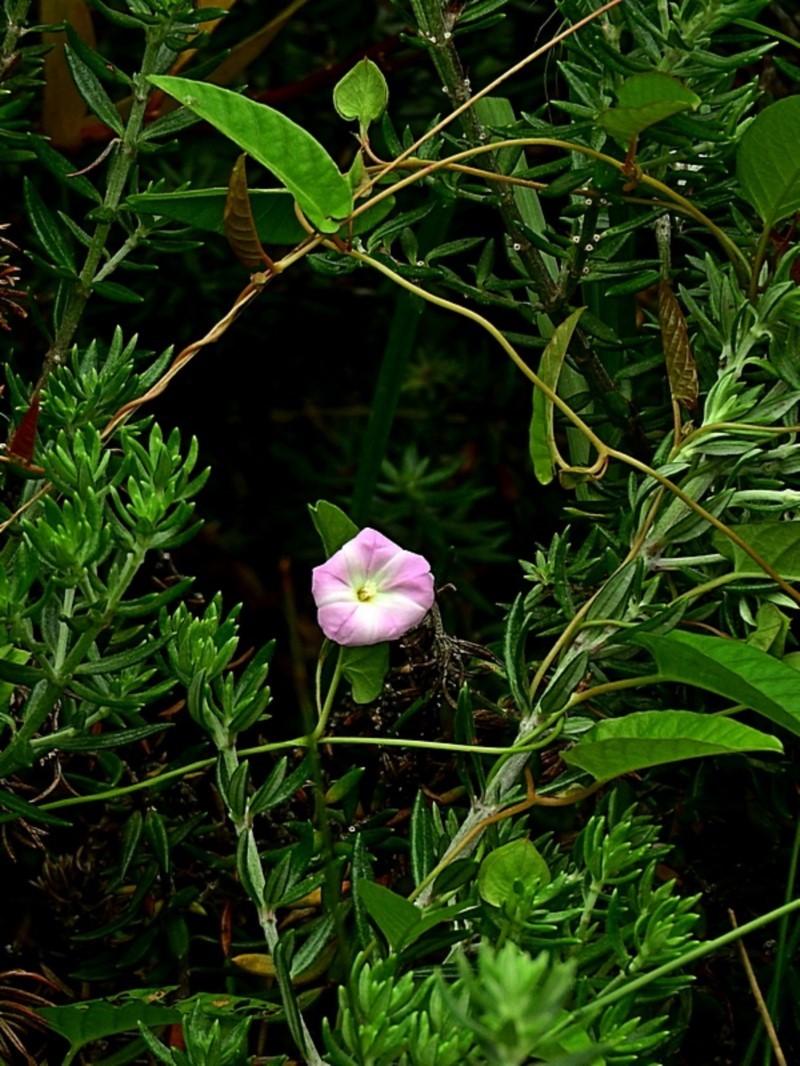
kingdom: Plantae
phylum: Tracheophyta
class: Magnoliopsida
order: Solanales
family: Convolvulaceae
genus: Polymeria
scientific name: Polymeria calycina
